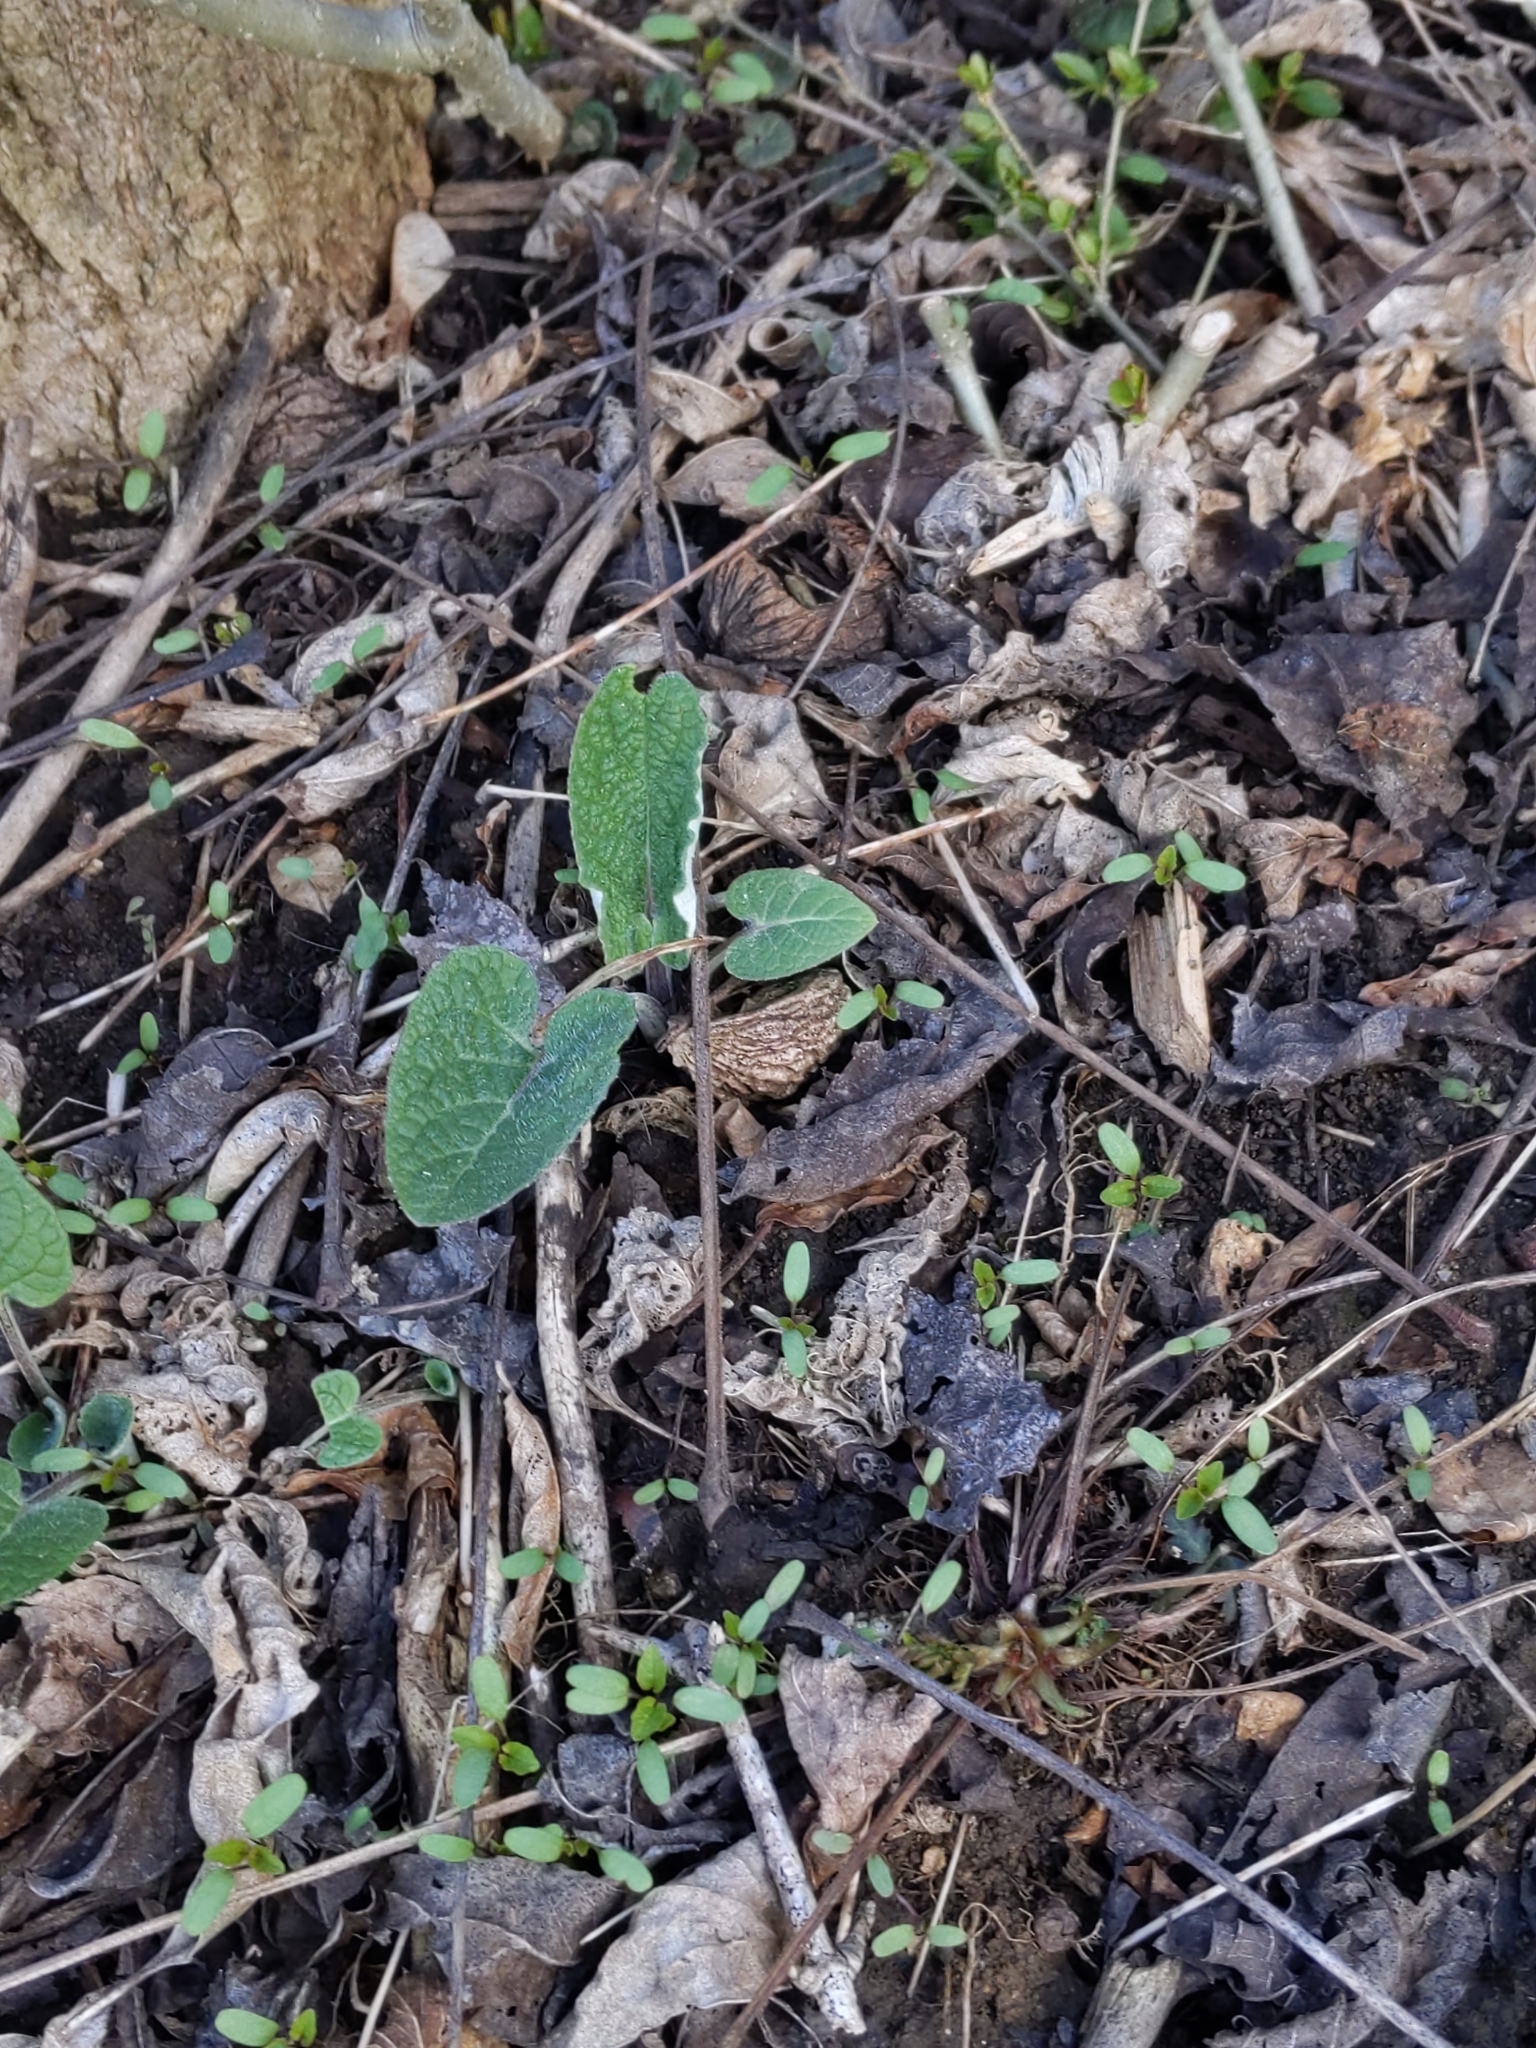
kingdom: Plantae
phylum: Tracheophyta
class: Magnoliopsida
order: Asterales
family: Asteraceae
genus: Arctium
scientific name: Arctium
